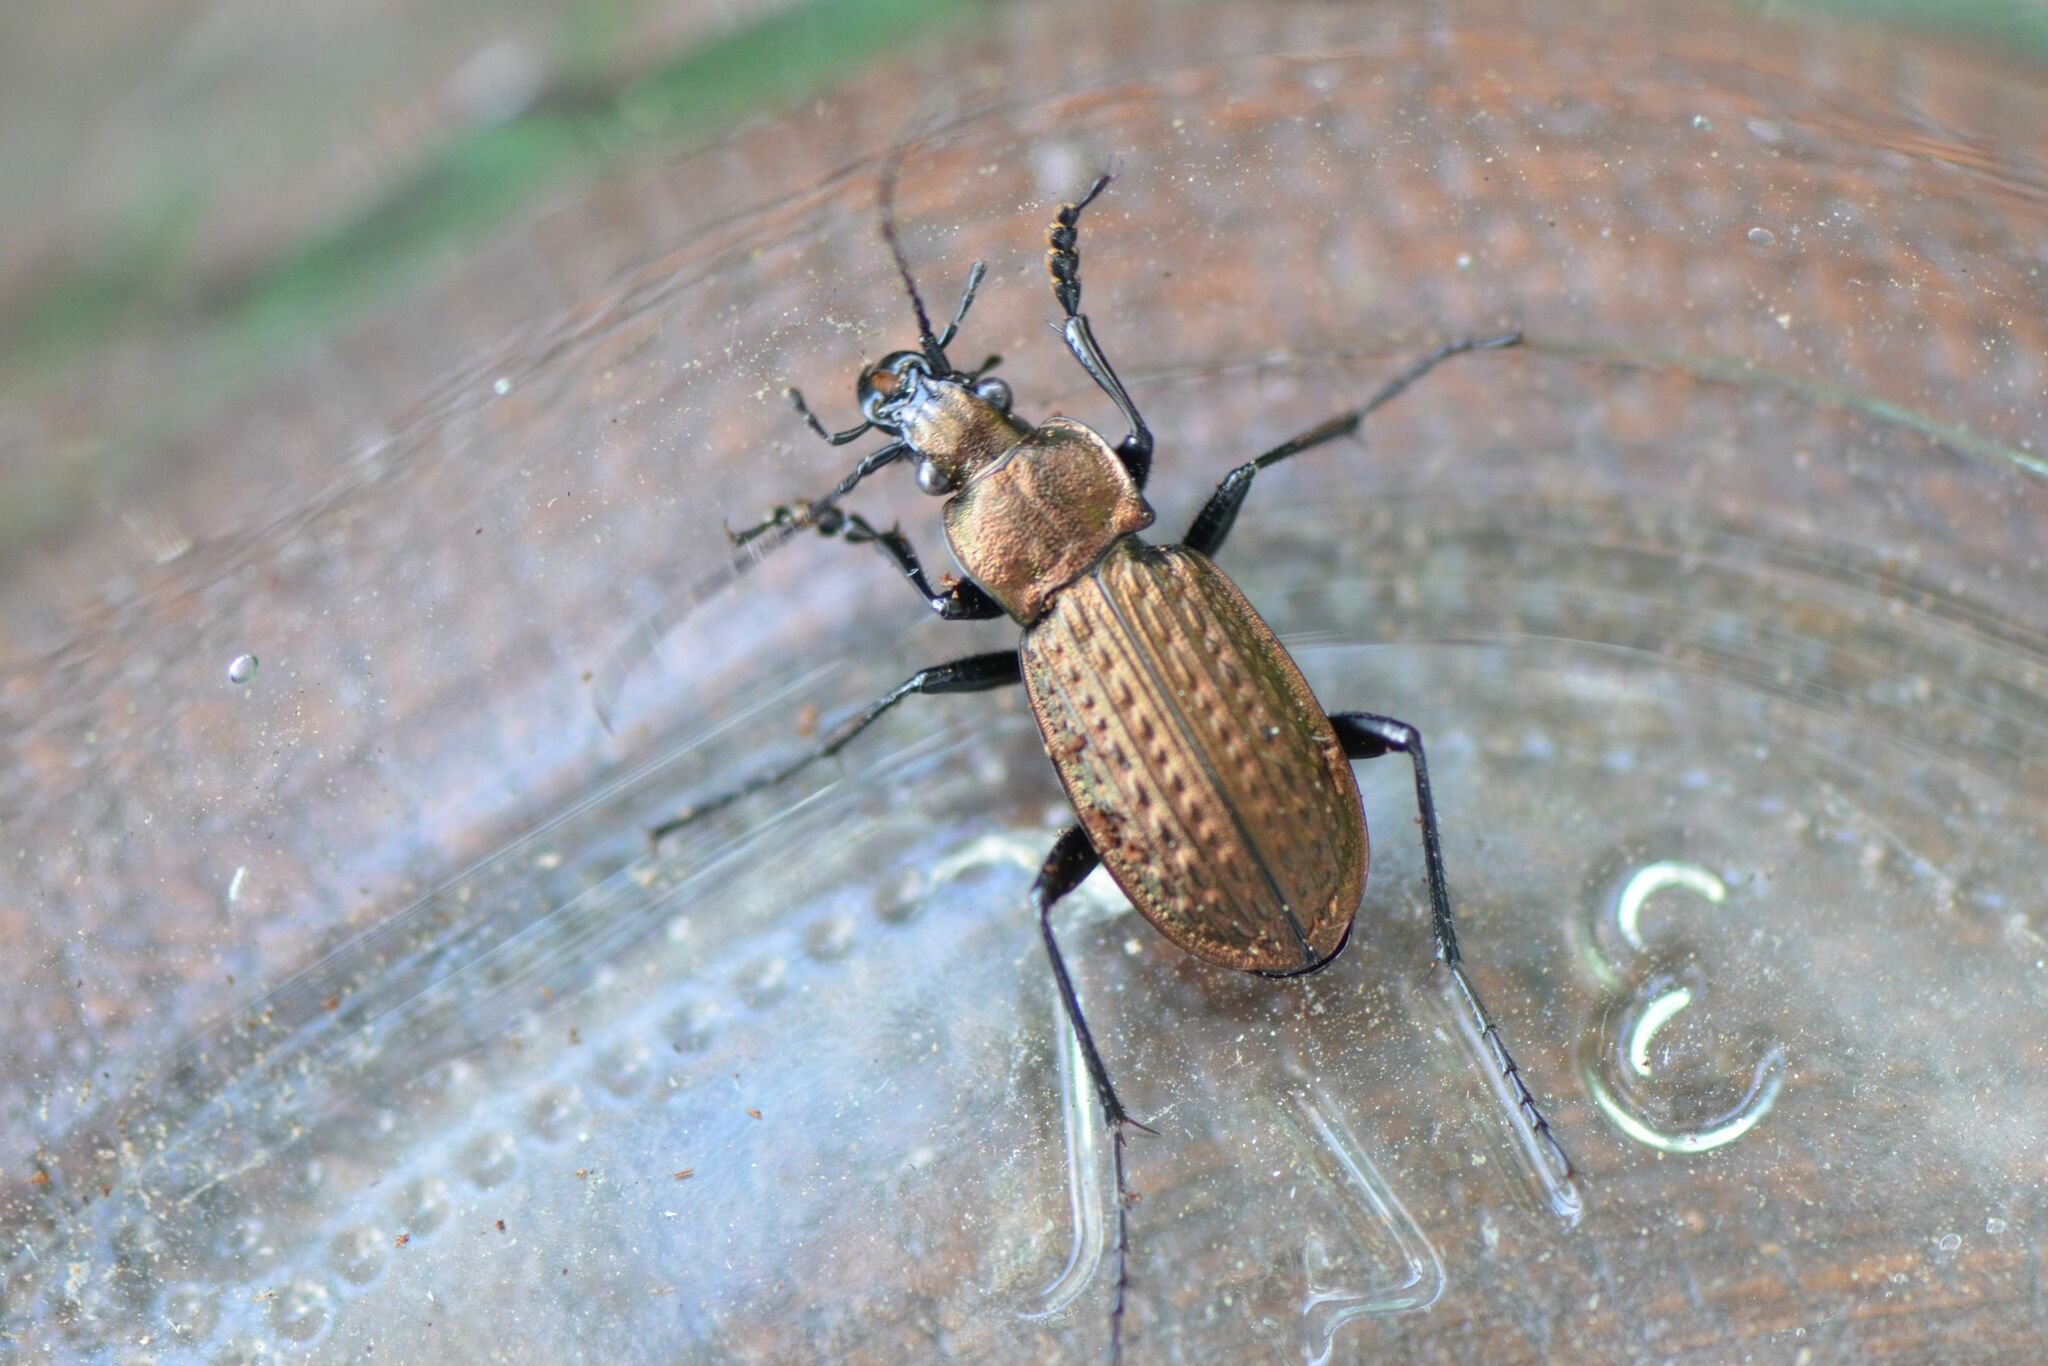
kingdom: Animalia
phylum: Arthropoda
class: Insecta
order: Coleoptera
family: Carabidae
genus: Carabus
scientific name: Carabus granulatus
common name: Granulate ground beetle
